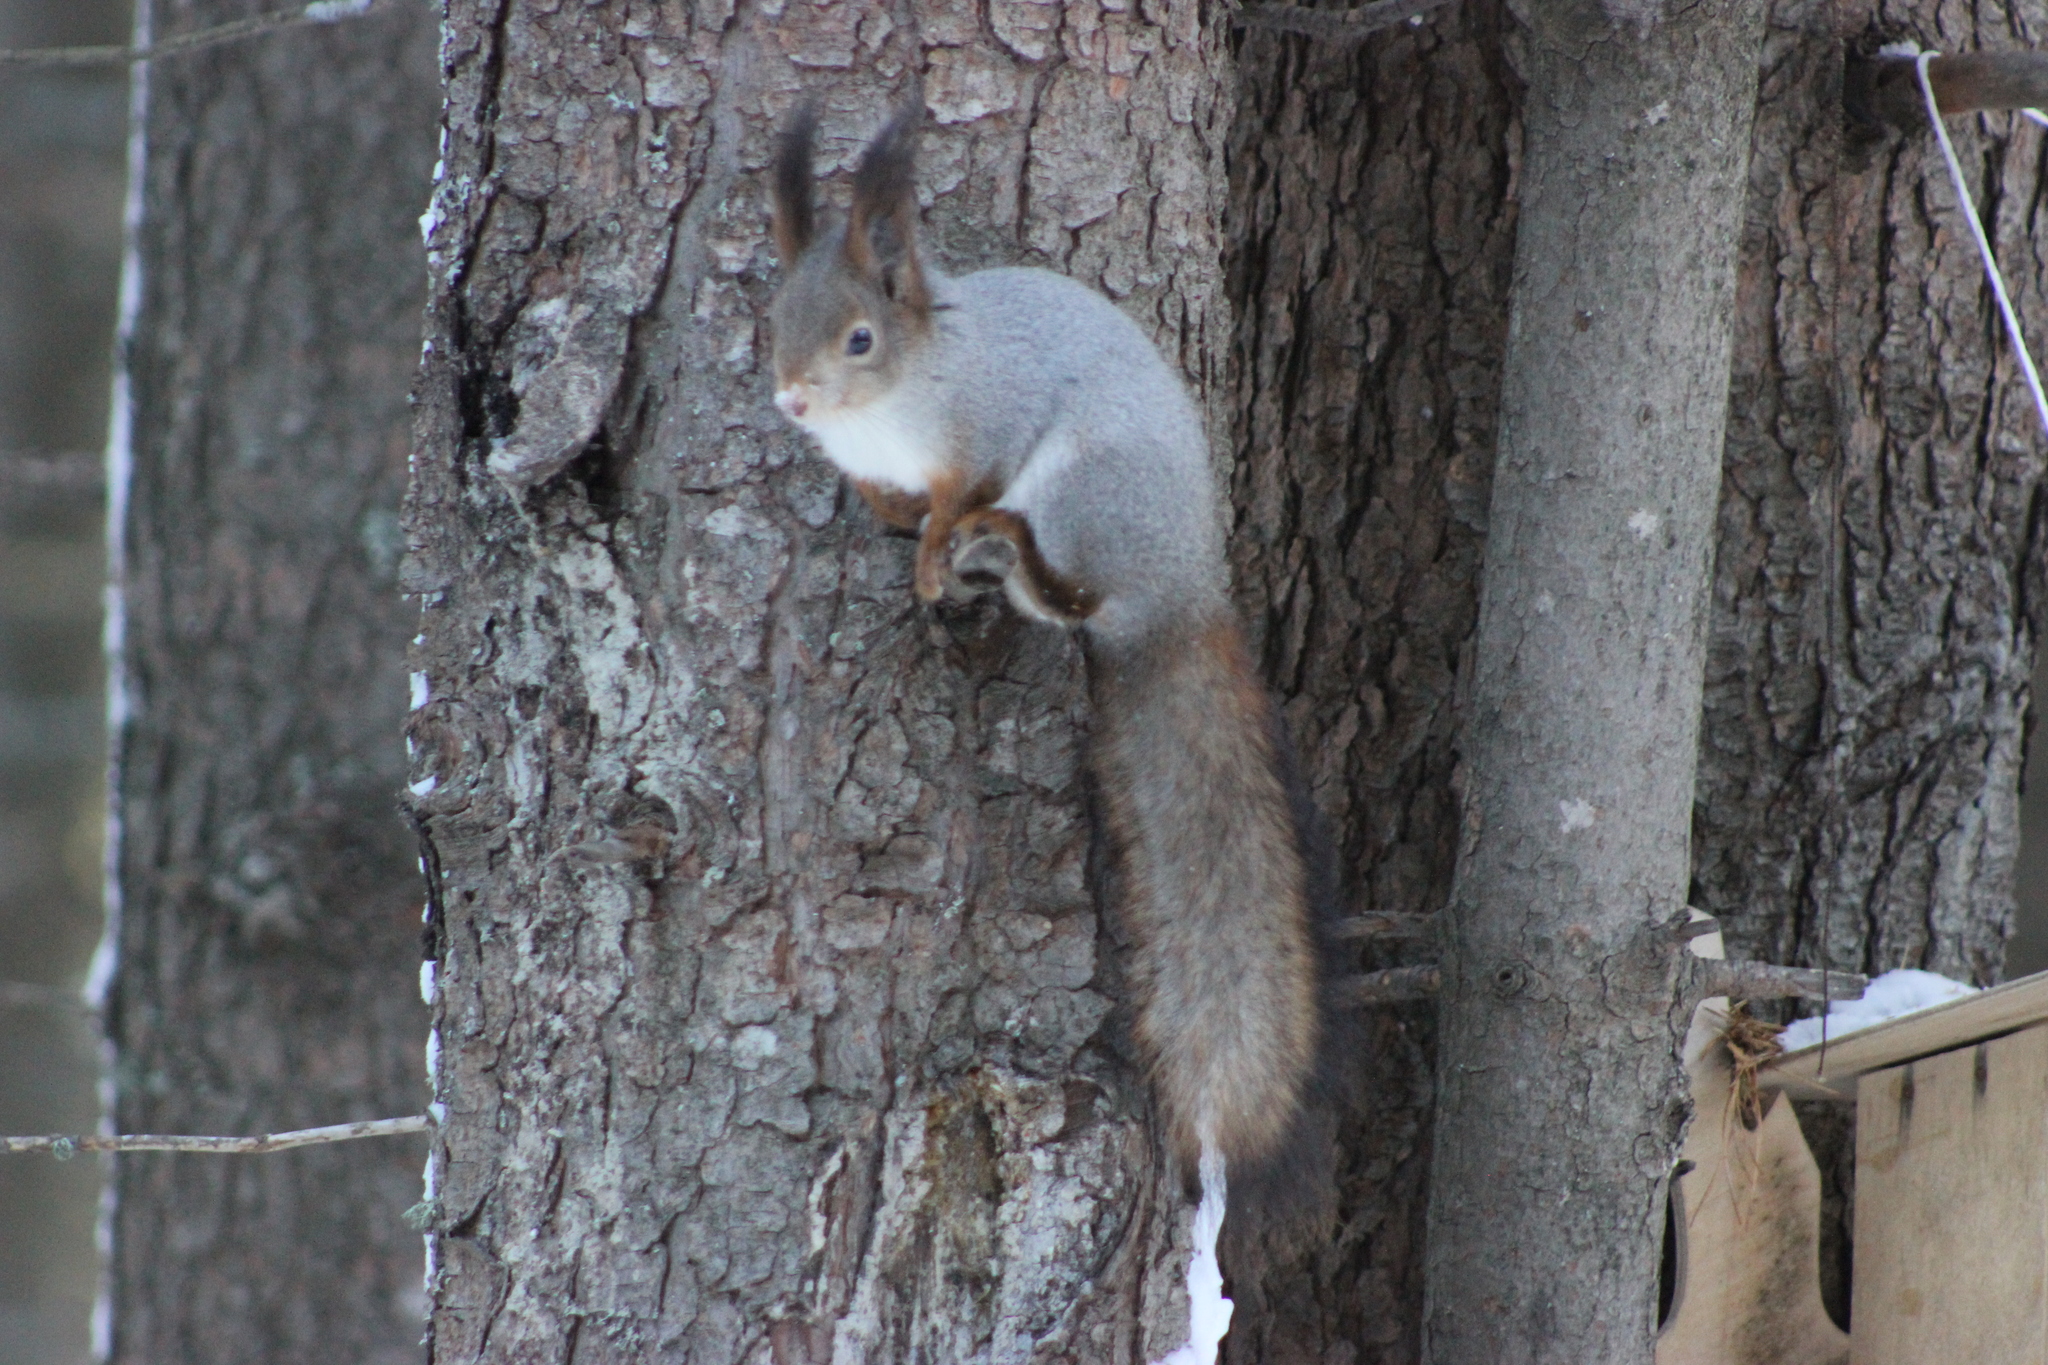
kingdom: Animalia
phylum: Chordata
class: Mammalia
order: Rodentia
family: Sciuridae
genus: Sciurus
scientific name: Sciurus vulgaris
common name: Eurasian red squirrel
